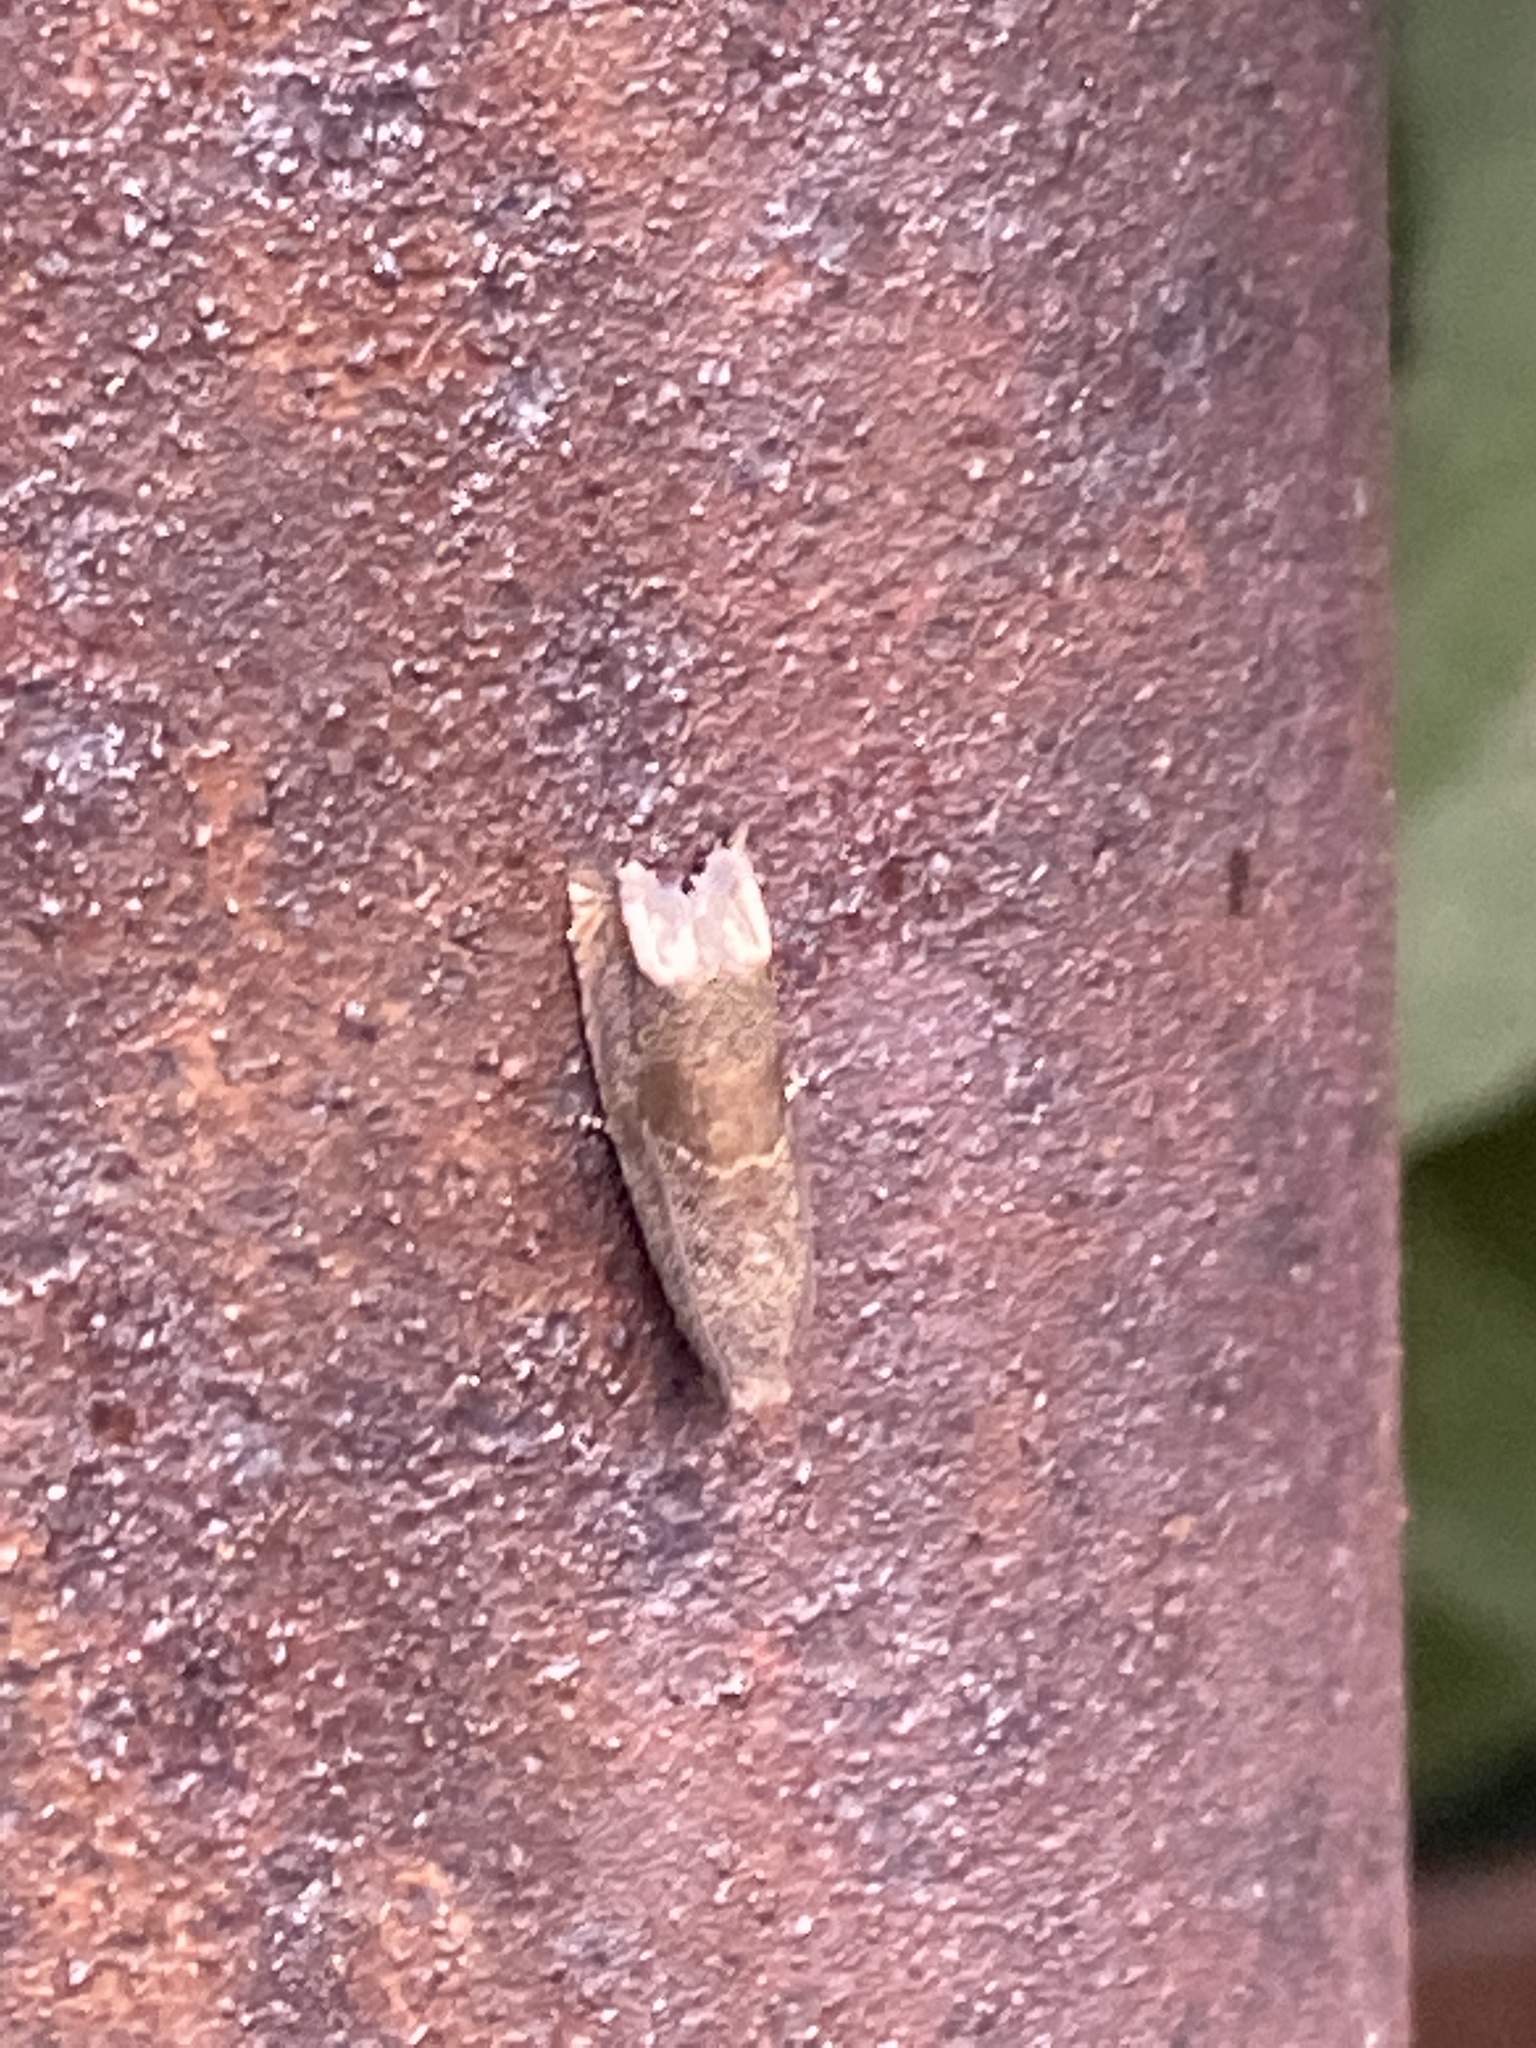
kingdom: Animalia
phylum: Arthropoda
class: Insecta
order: Lepidoptera
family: Tortricidae
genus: Epiblema
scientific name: Epiblema strenuana
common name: Ragweed borer moth
